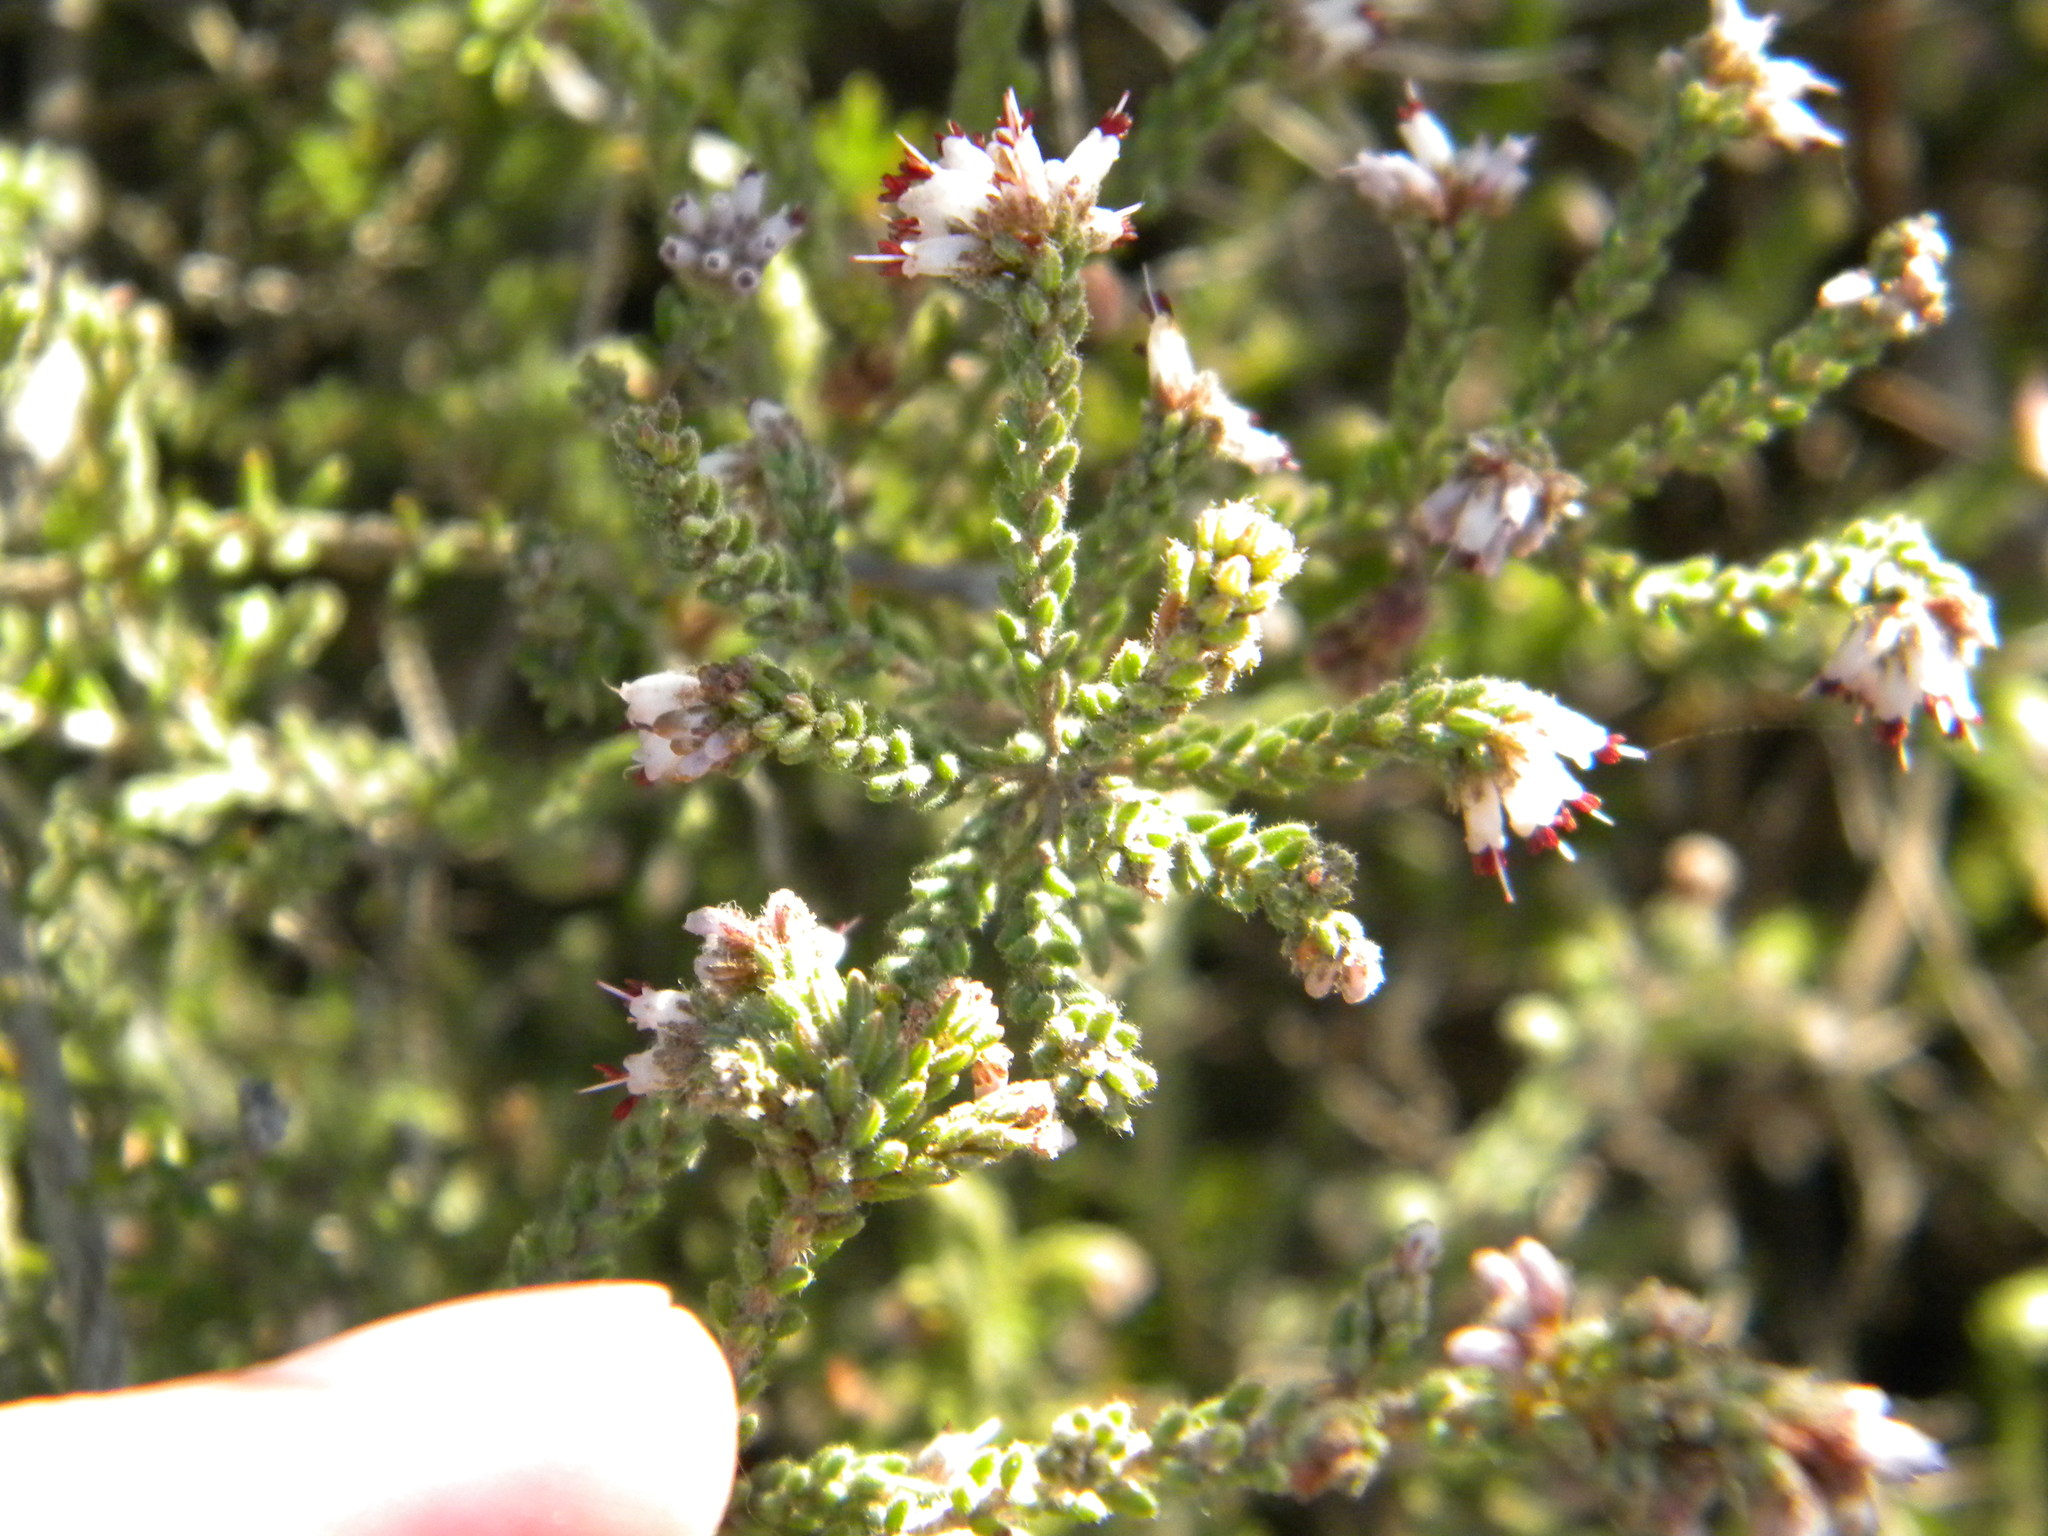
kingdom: Plantae
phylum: Tracheophyta
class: Magnoliopsida
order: Ericales
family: Ericaceae
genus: Erica
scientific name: Erica ericoides
